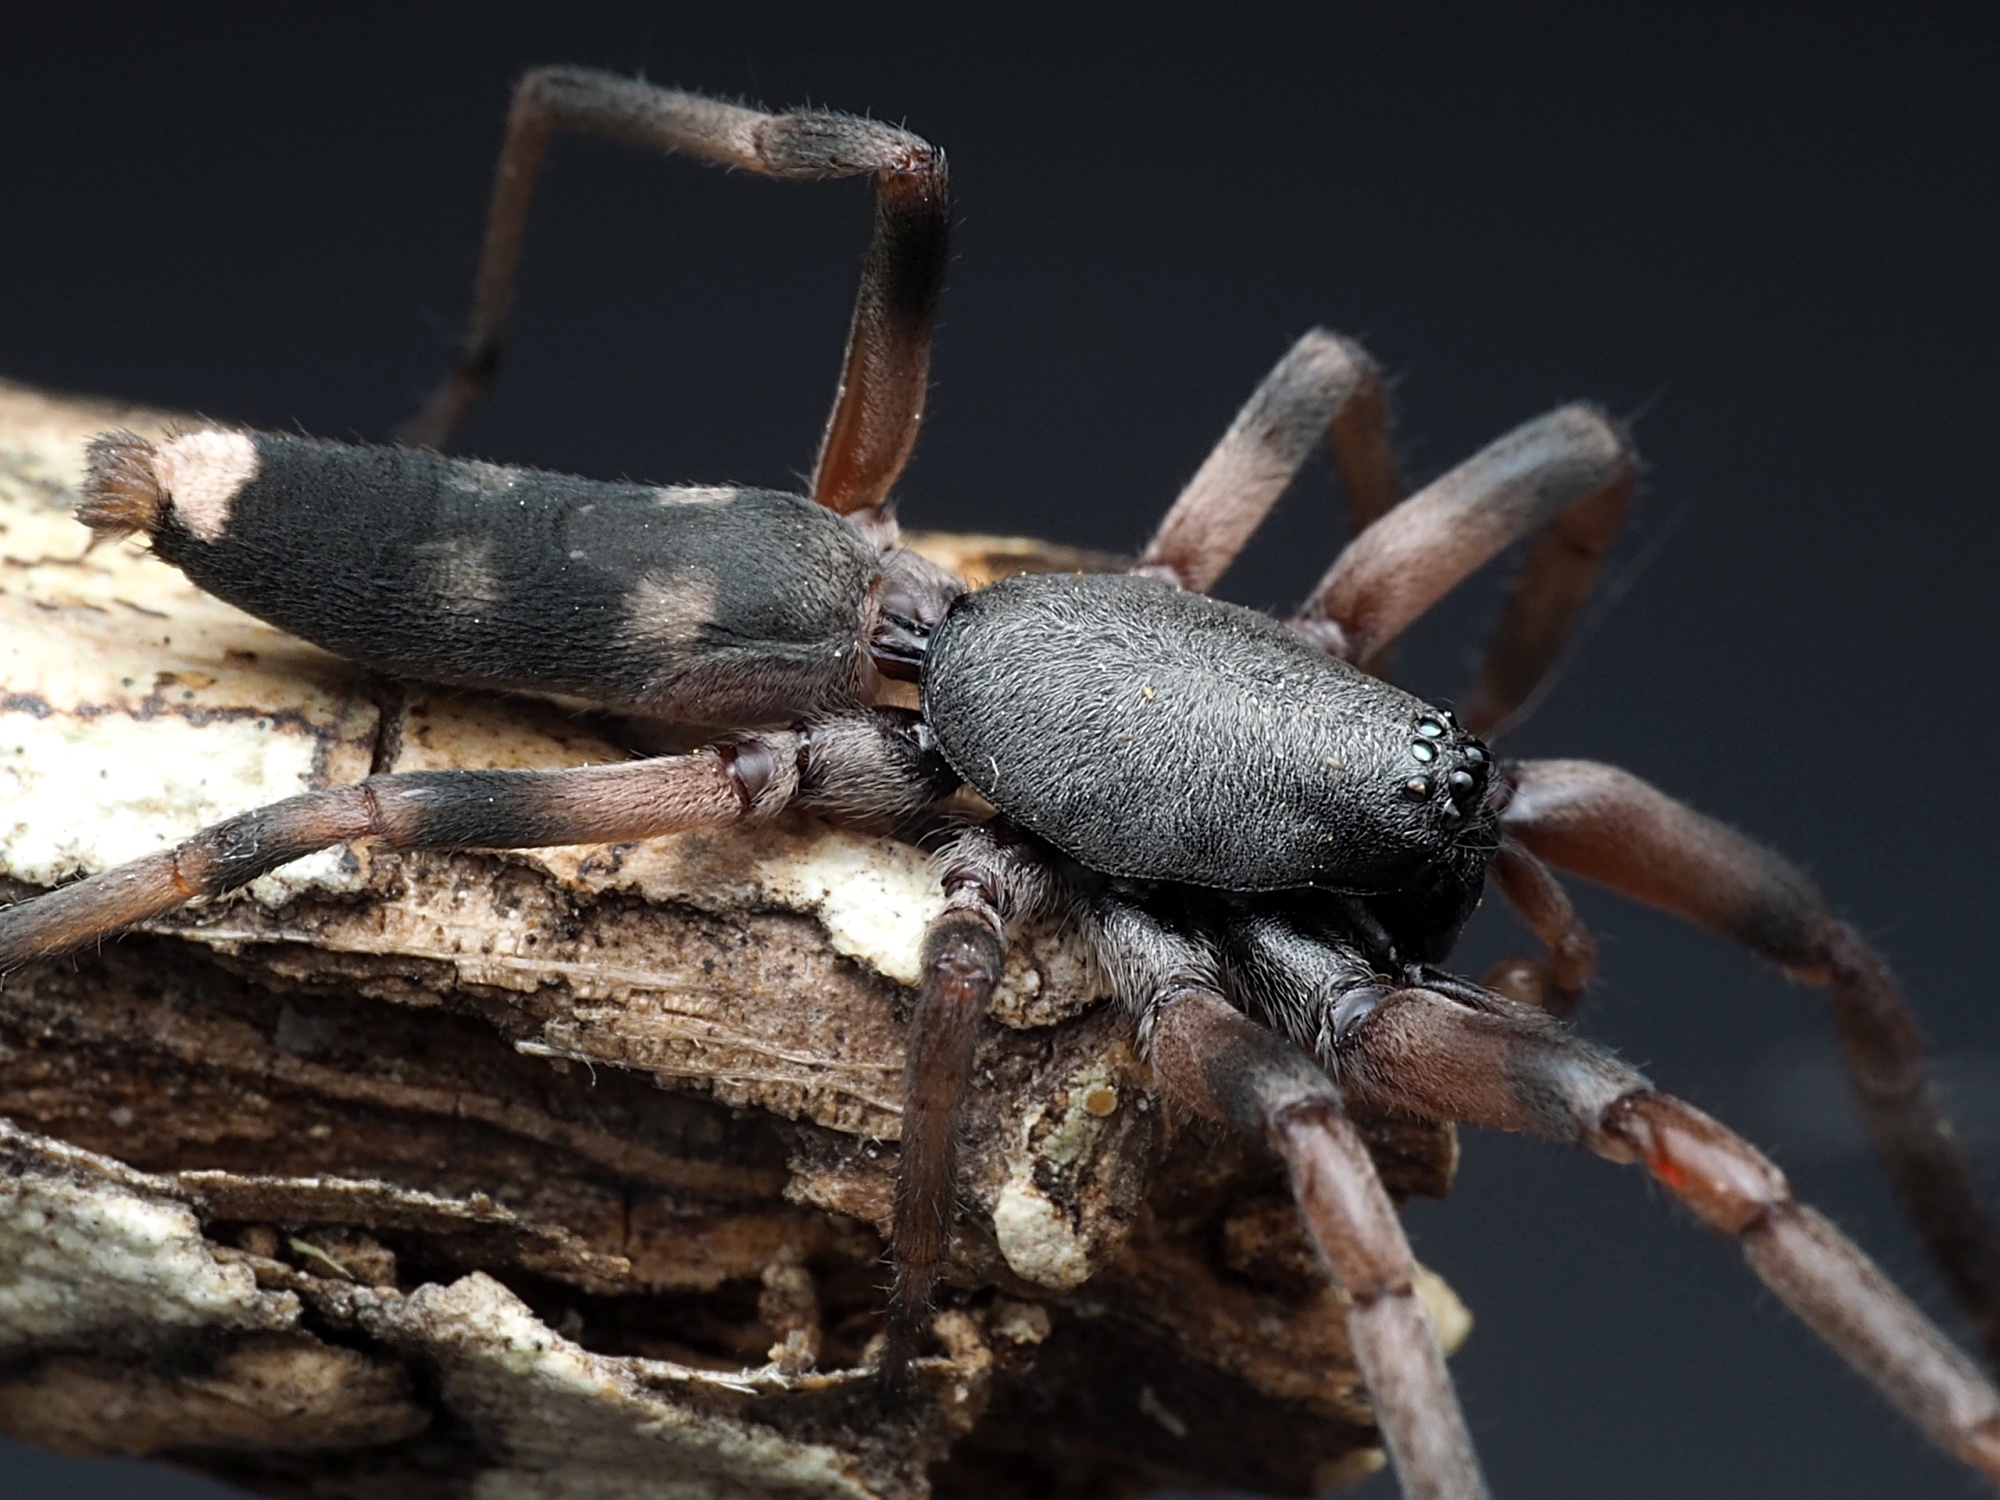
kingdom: Animalia
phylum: Arthropoda
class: Arachnida
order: Araneae
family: Lamponidae
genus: Lampona
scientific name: Lampona murina
